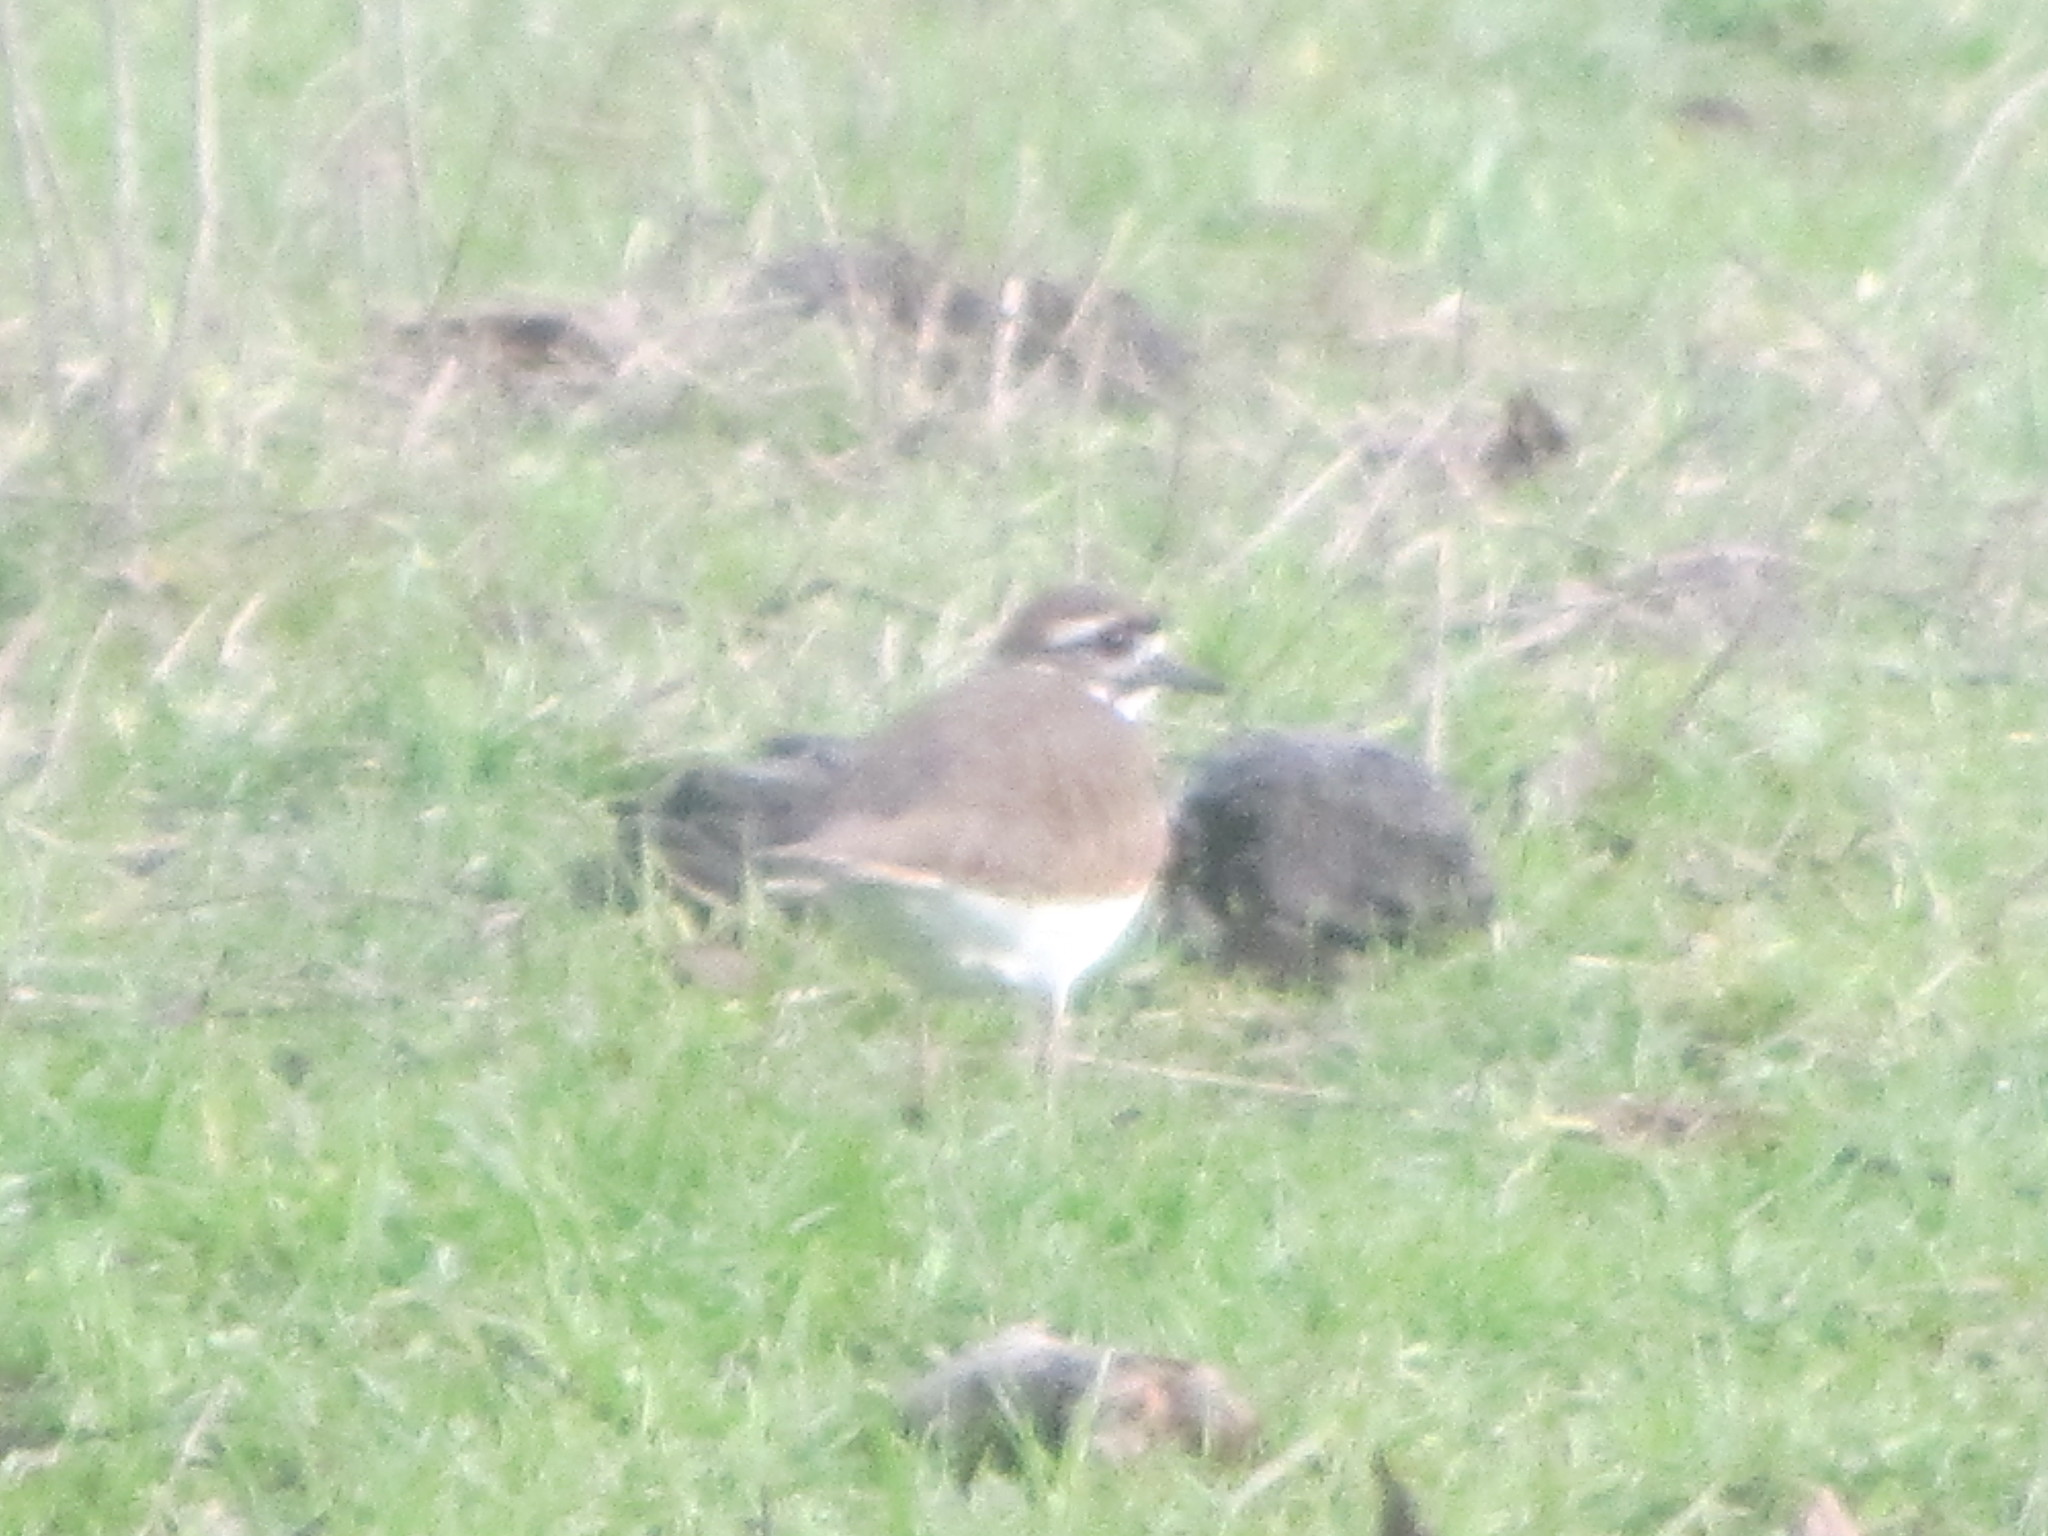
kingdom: Animalia
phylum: Chordata
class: Aves
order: Charadriiformes
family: Charadriidae
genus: Charadrius
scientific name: Charadrius vociferus
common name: Killdeer
